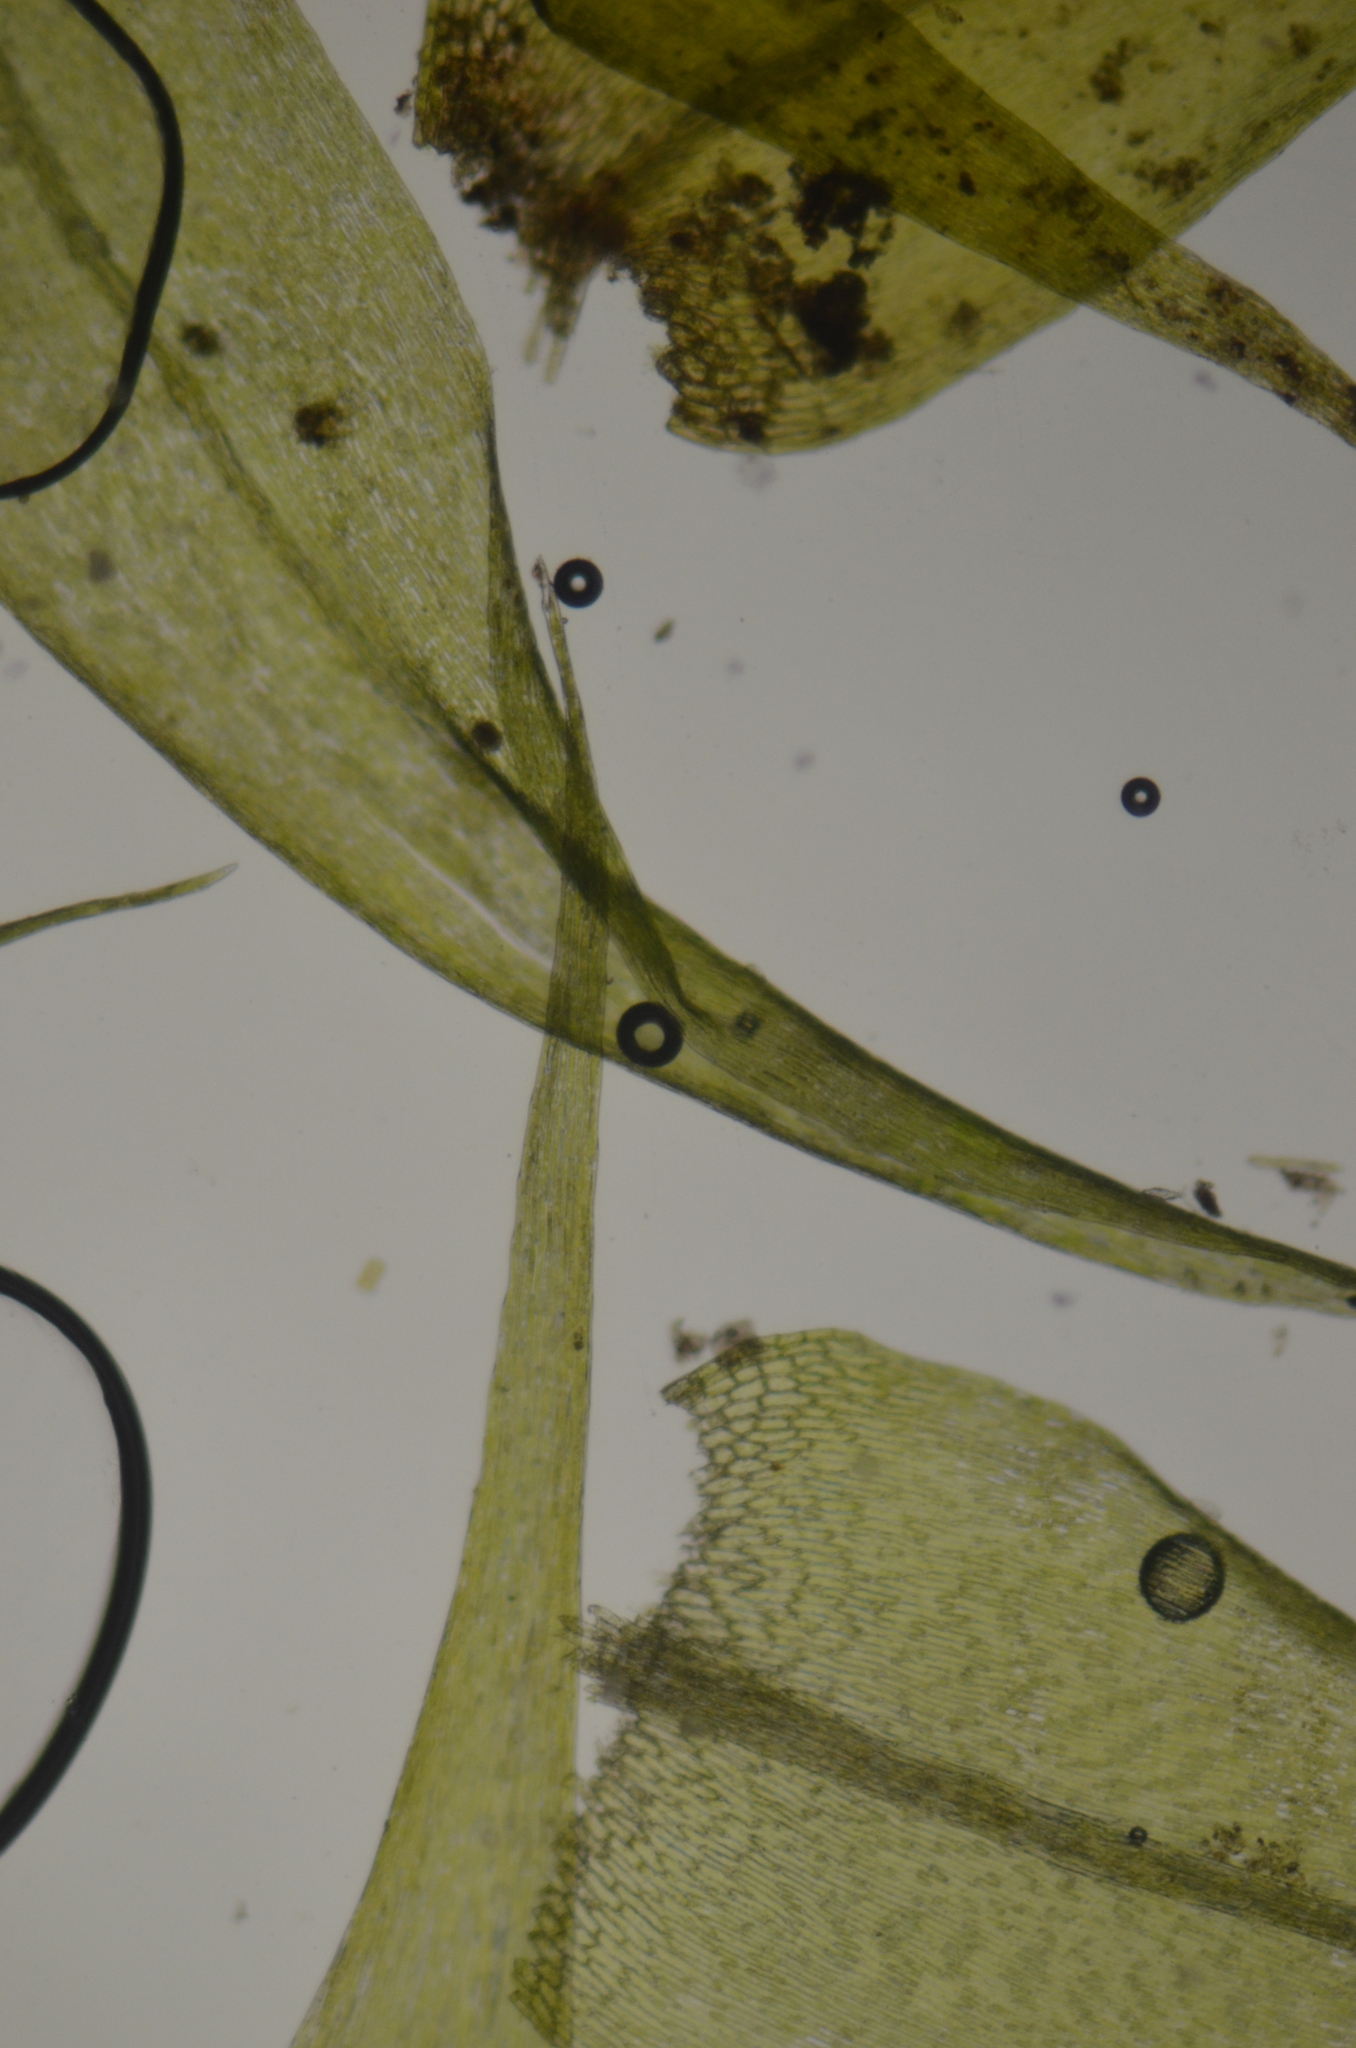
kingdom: Plantae
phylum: Bryophyta
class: Bryopsida
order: Hypnales
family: Amblystegiaceae
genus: Leptodictyum
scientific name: Leptodictyum riparium
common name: Riparian feather moss
